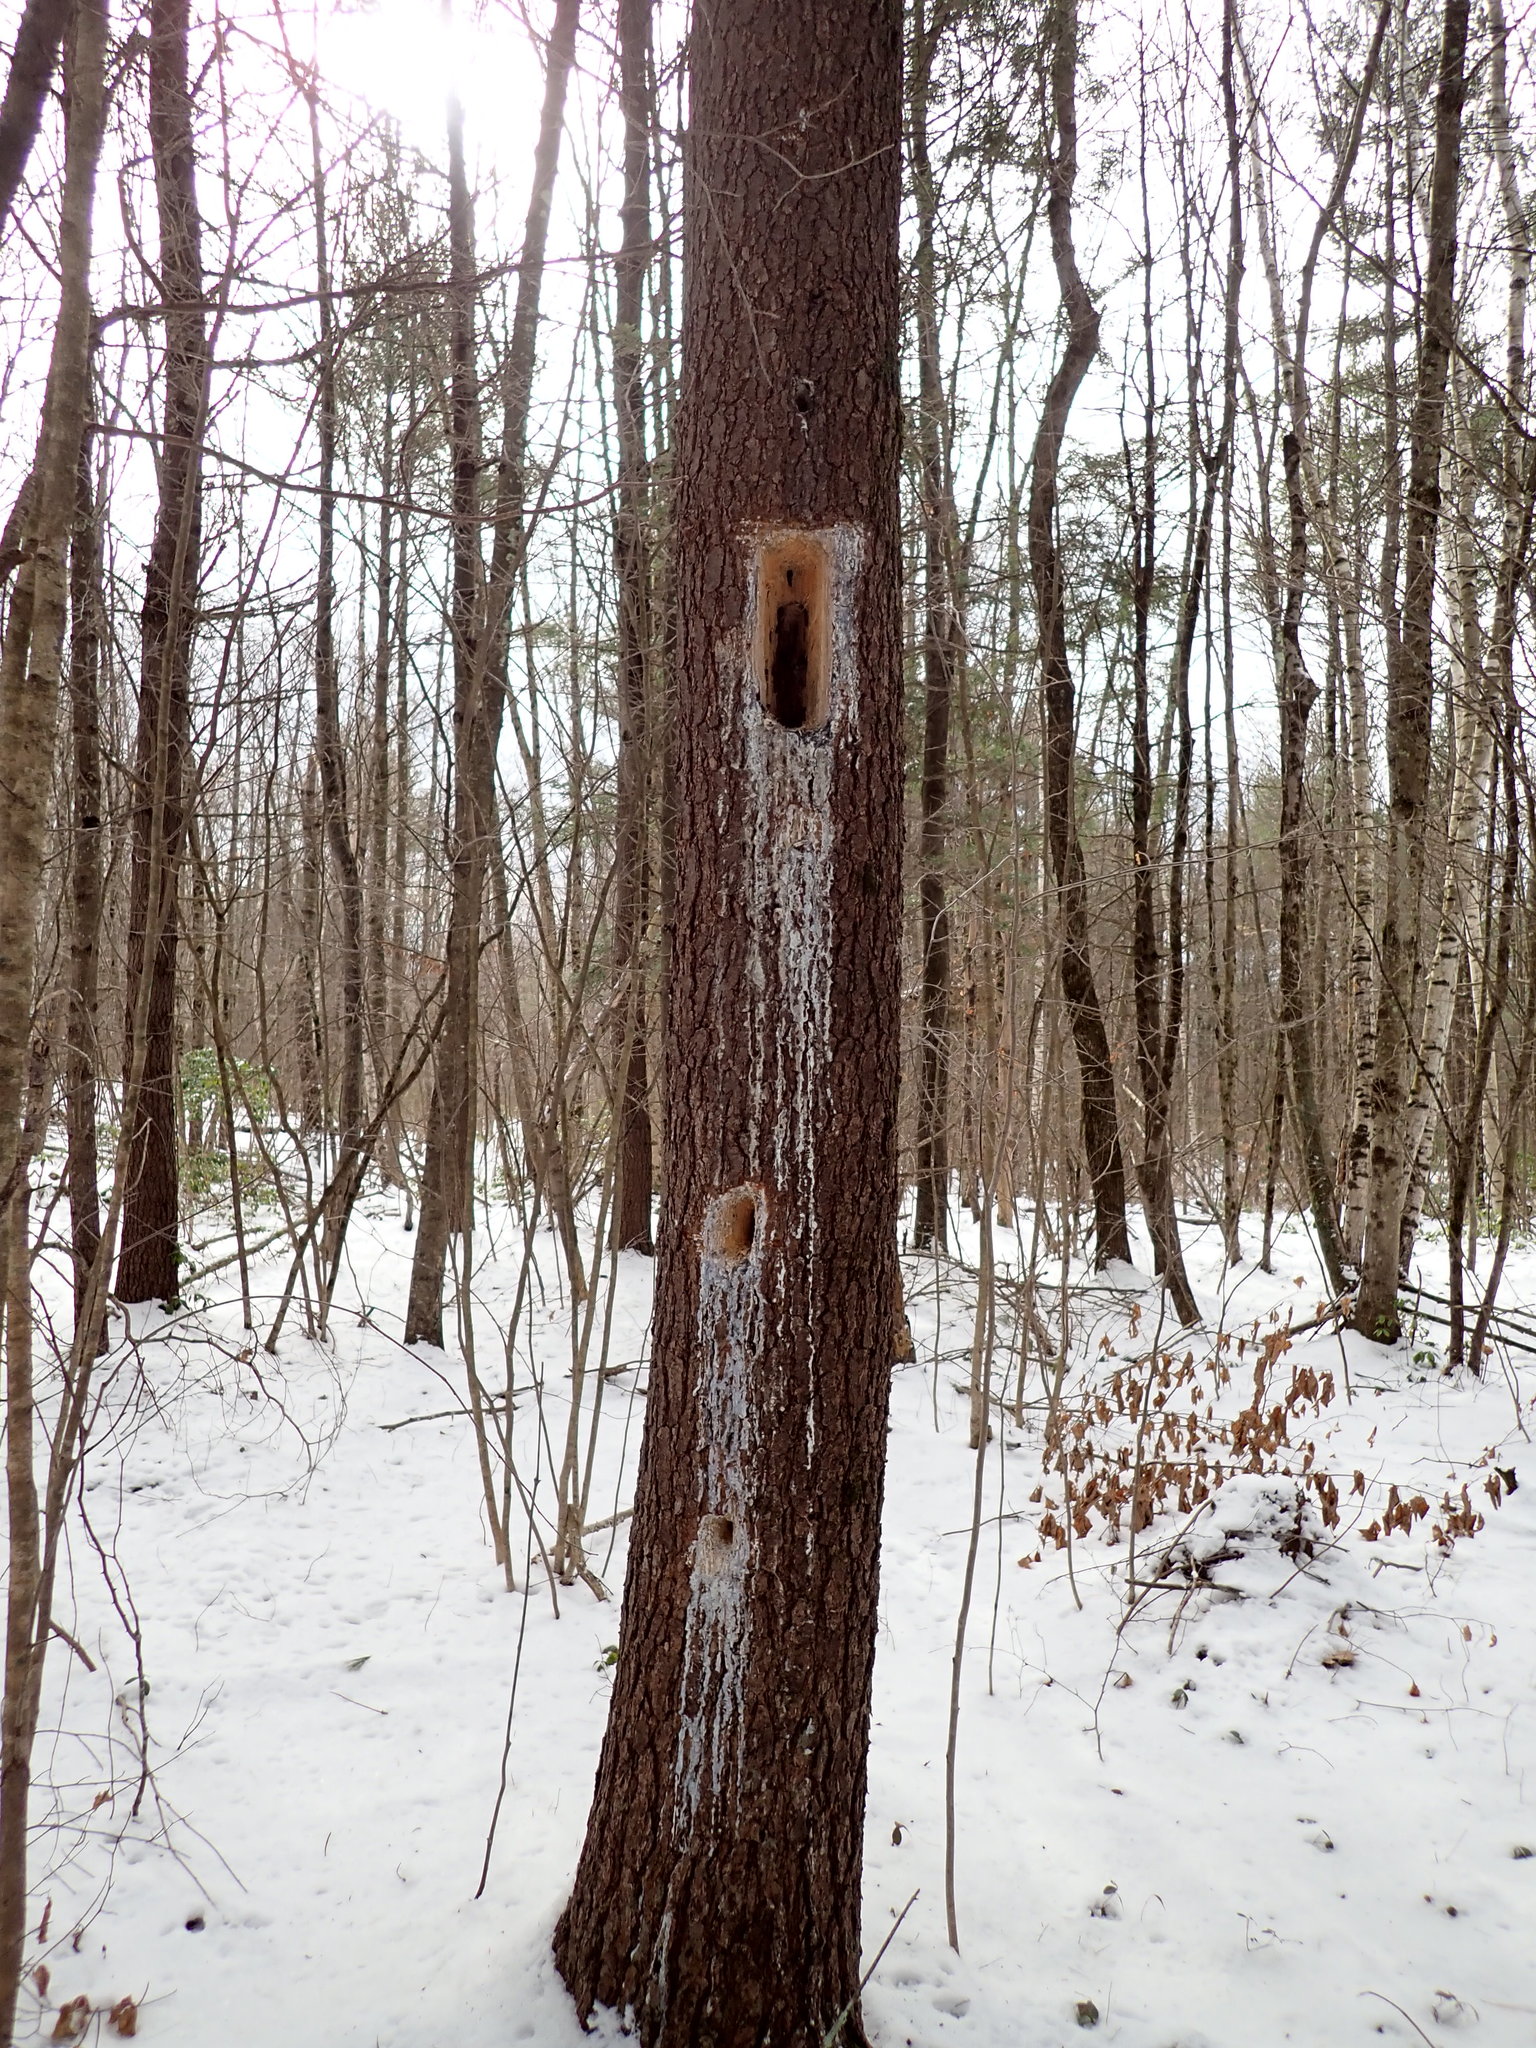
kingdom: Animalia
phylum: Chordata
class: Aves
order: Piciformes
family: Picidae
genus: Dryocopus
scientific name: Dryocopus pileatus
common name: Pileated woodpecker
